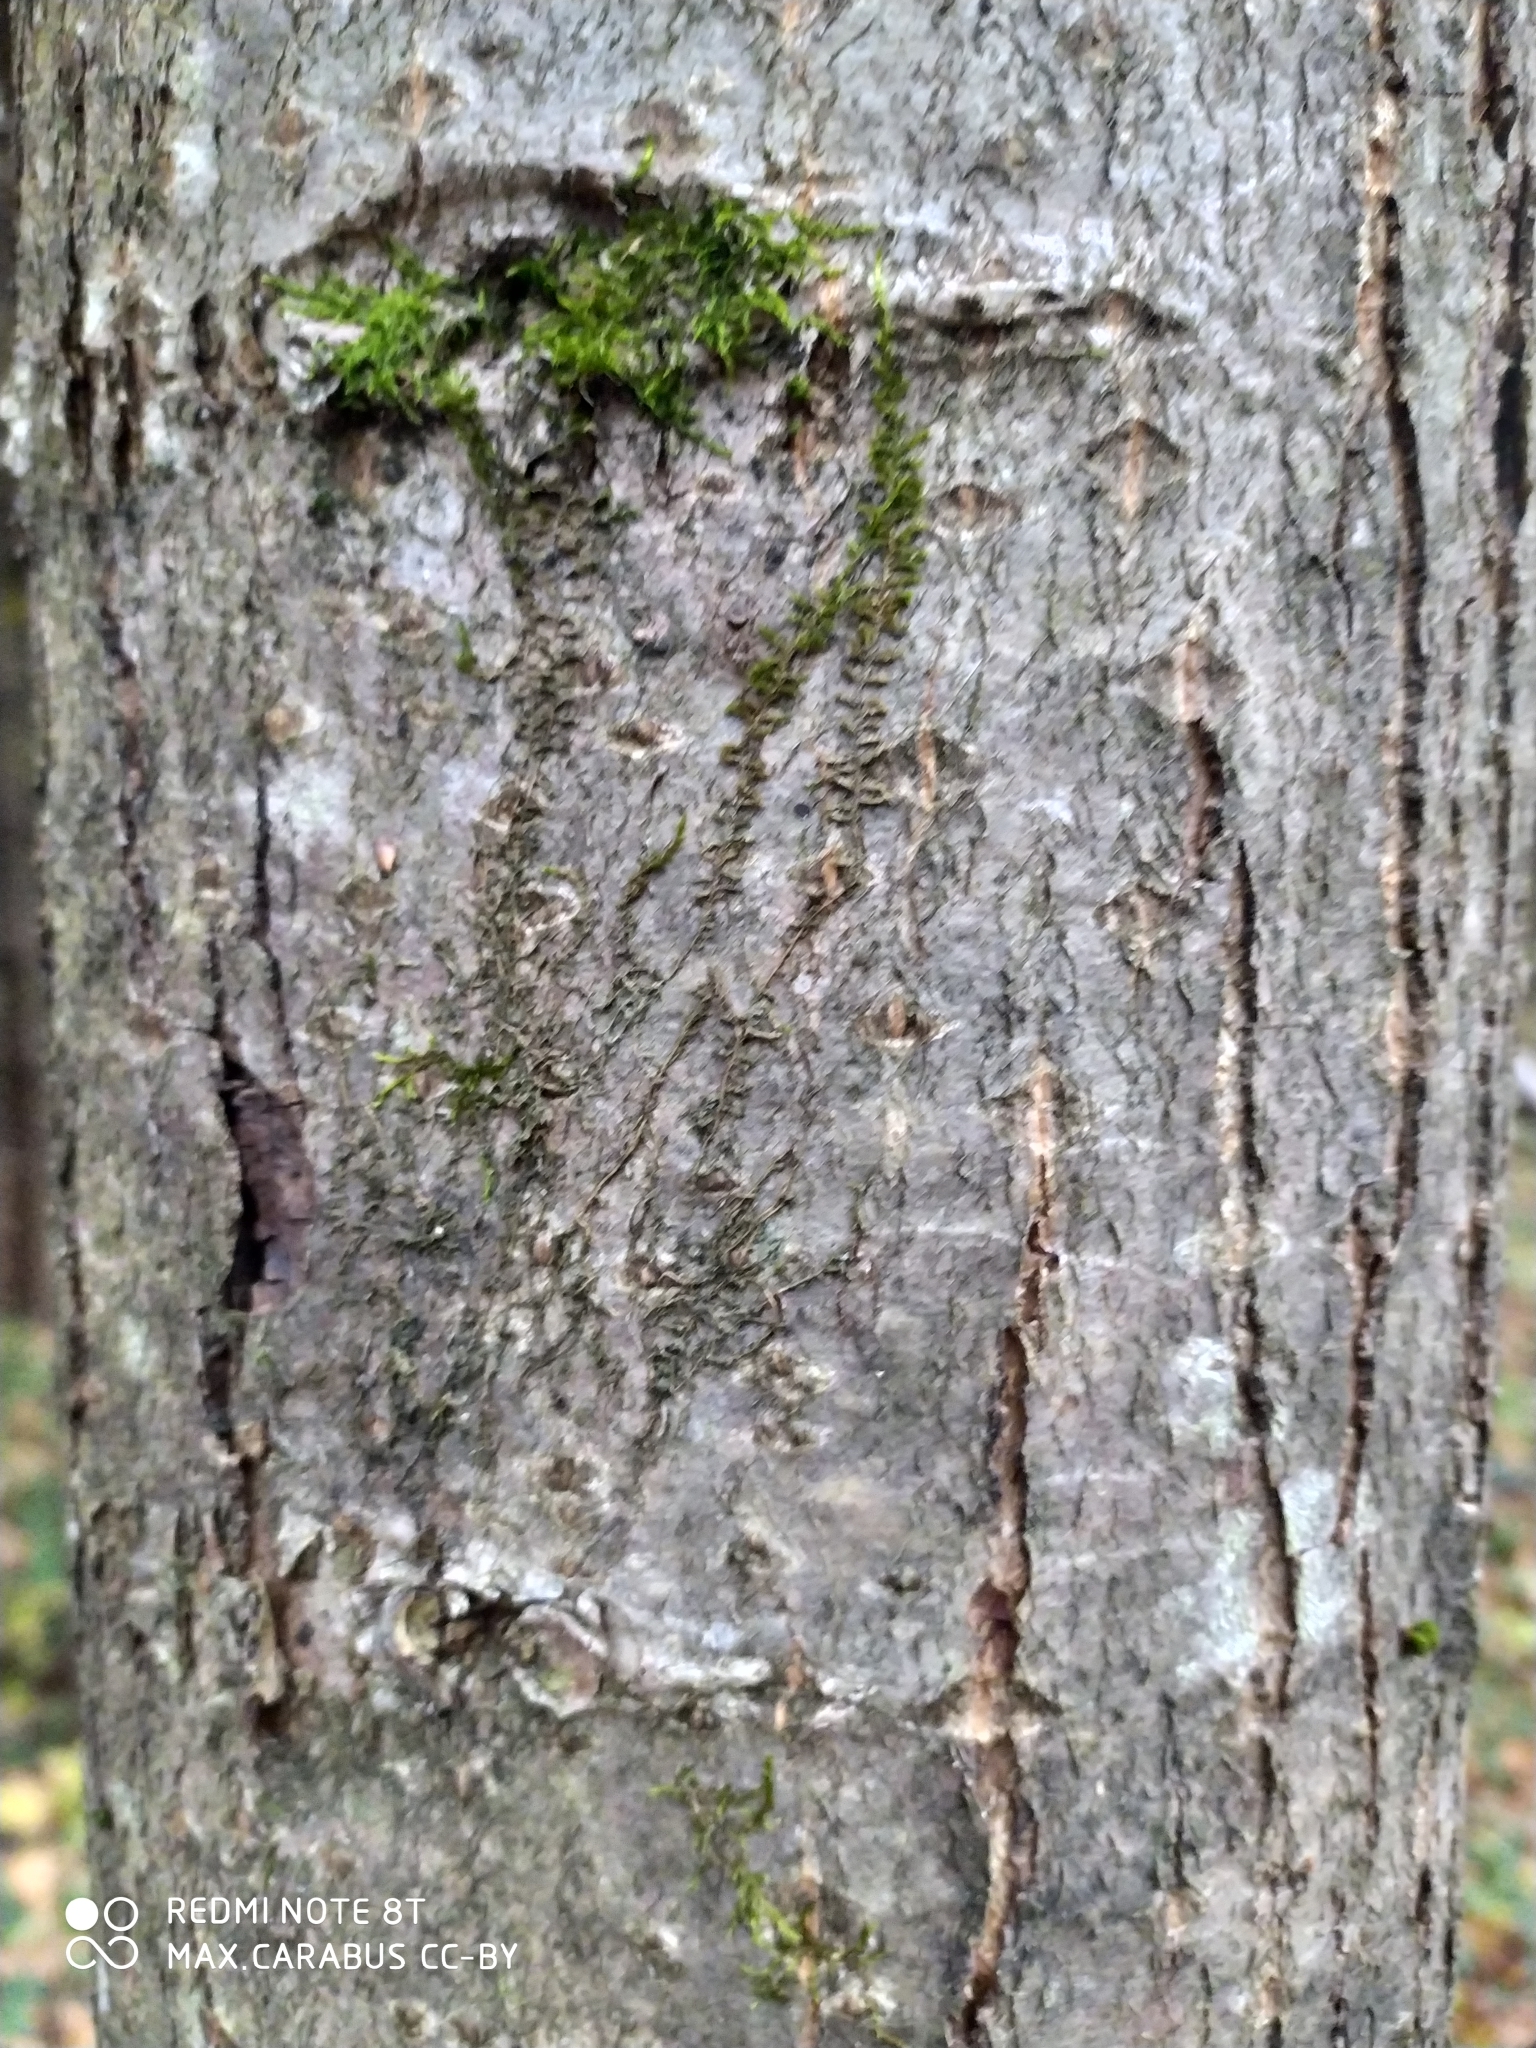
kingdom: Plantae
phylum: Tracheophyta
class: Magnoliopsida
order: Malvales
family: Malvaceae
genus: Tilia
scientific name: Tilia cordata
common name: Small-leaved lime
